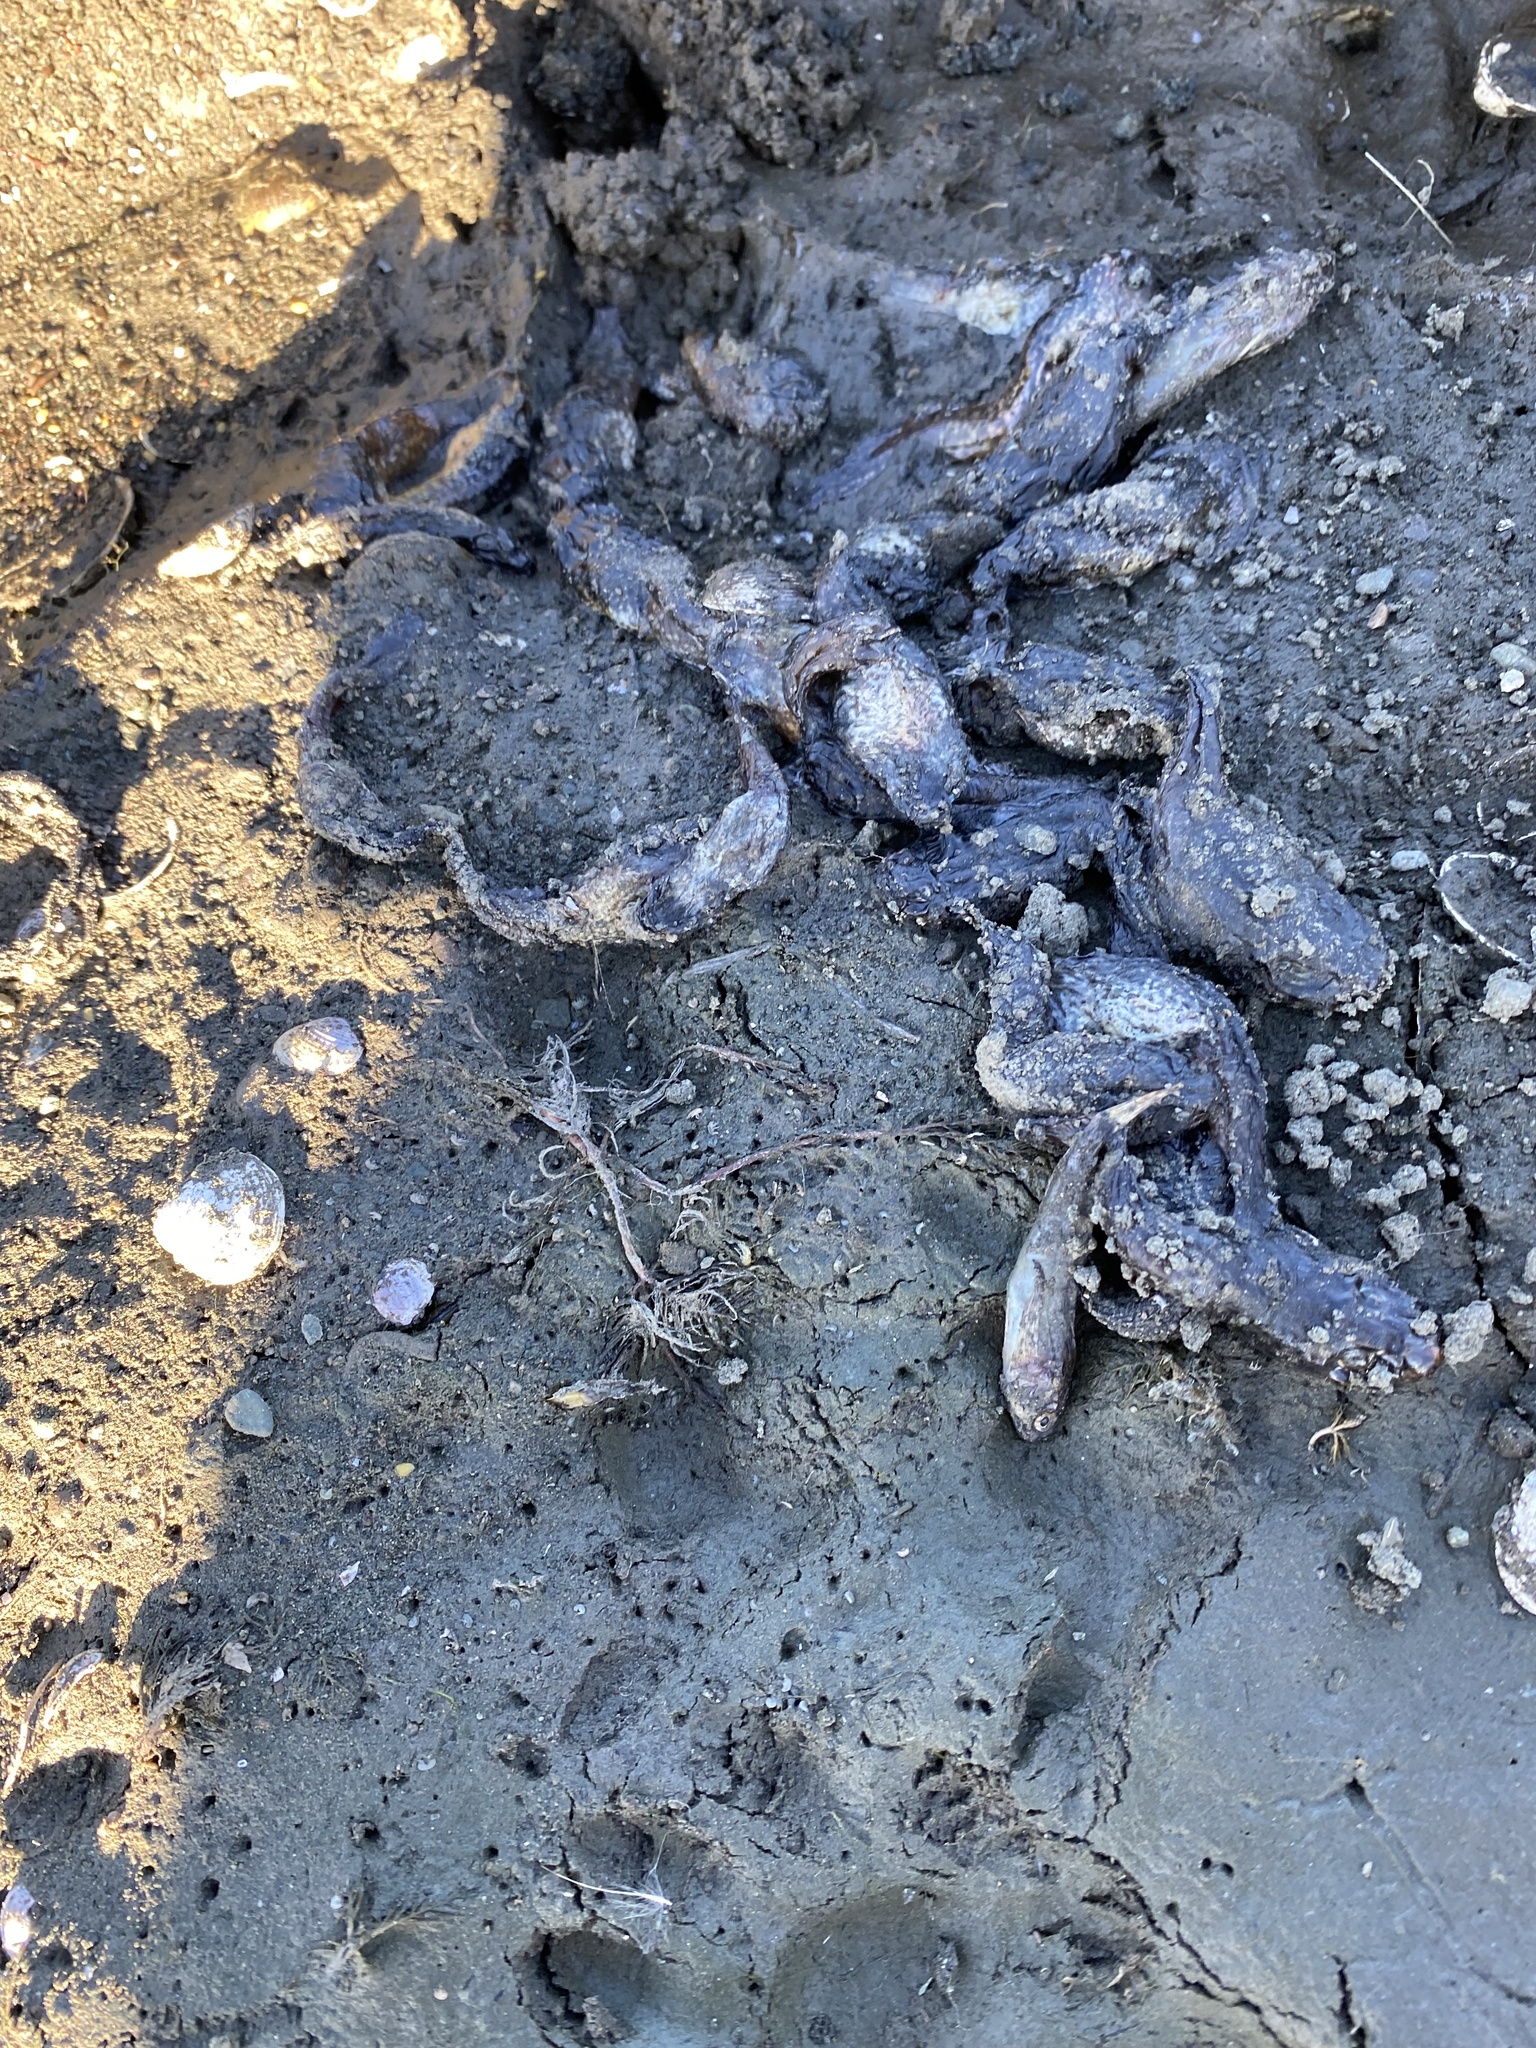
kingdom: Animalia
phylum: Chordata
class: Amphibia
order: Anura
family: Ranidae
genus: Lithobates
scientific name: Lithobates catesbeianus
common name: American bullfrog
